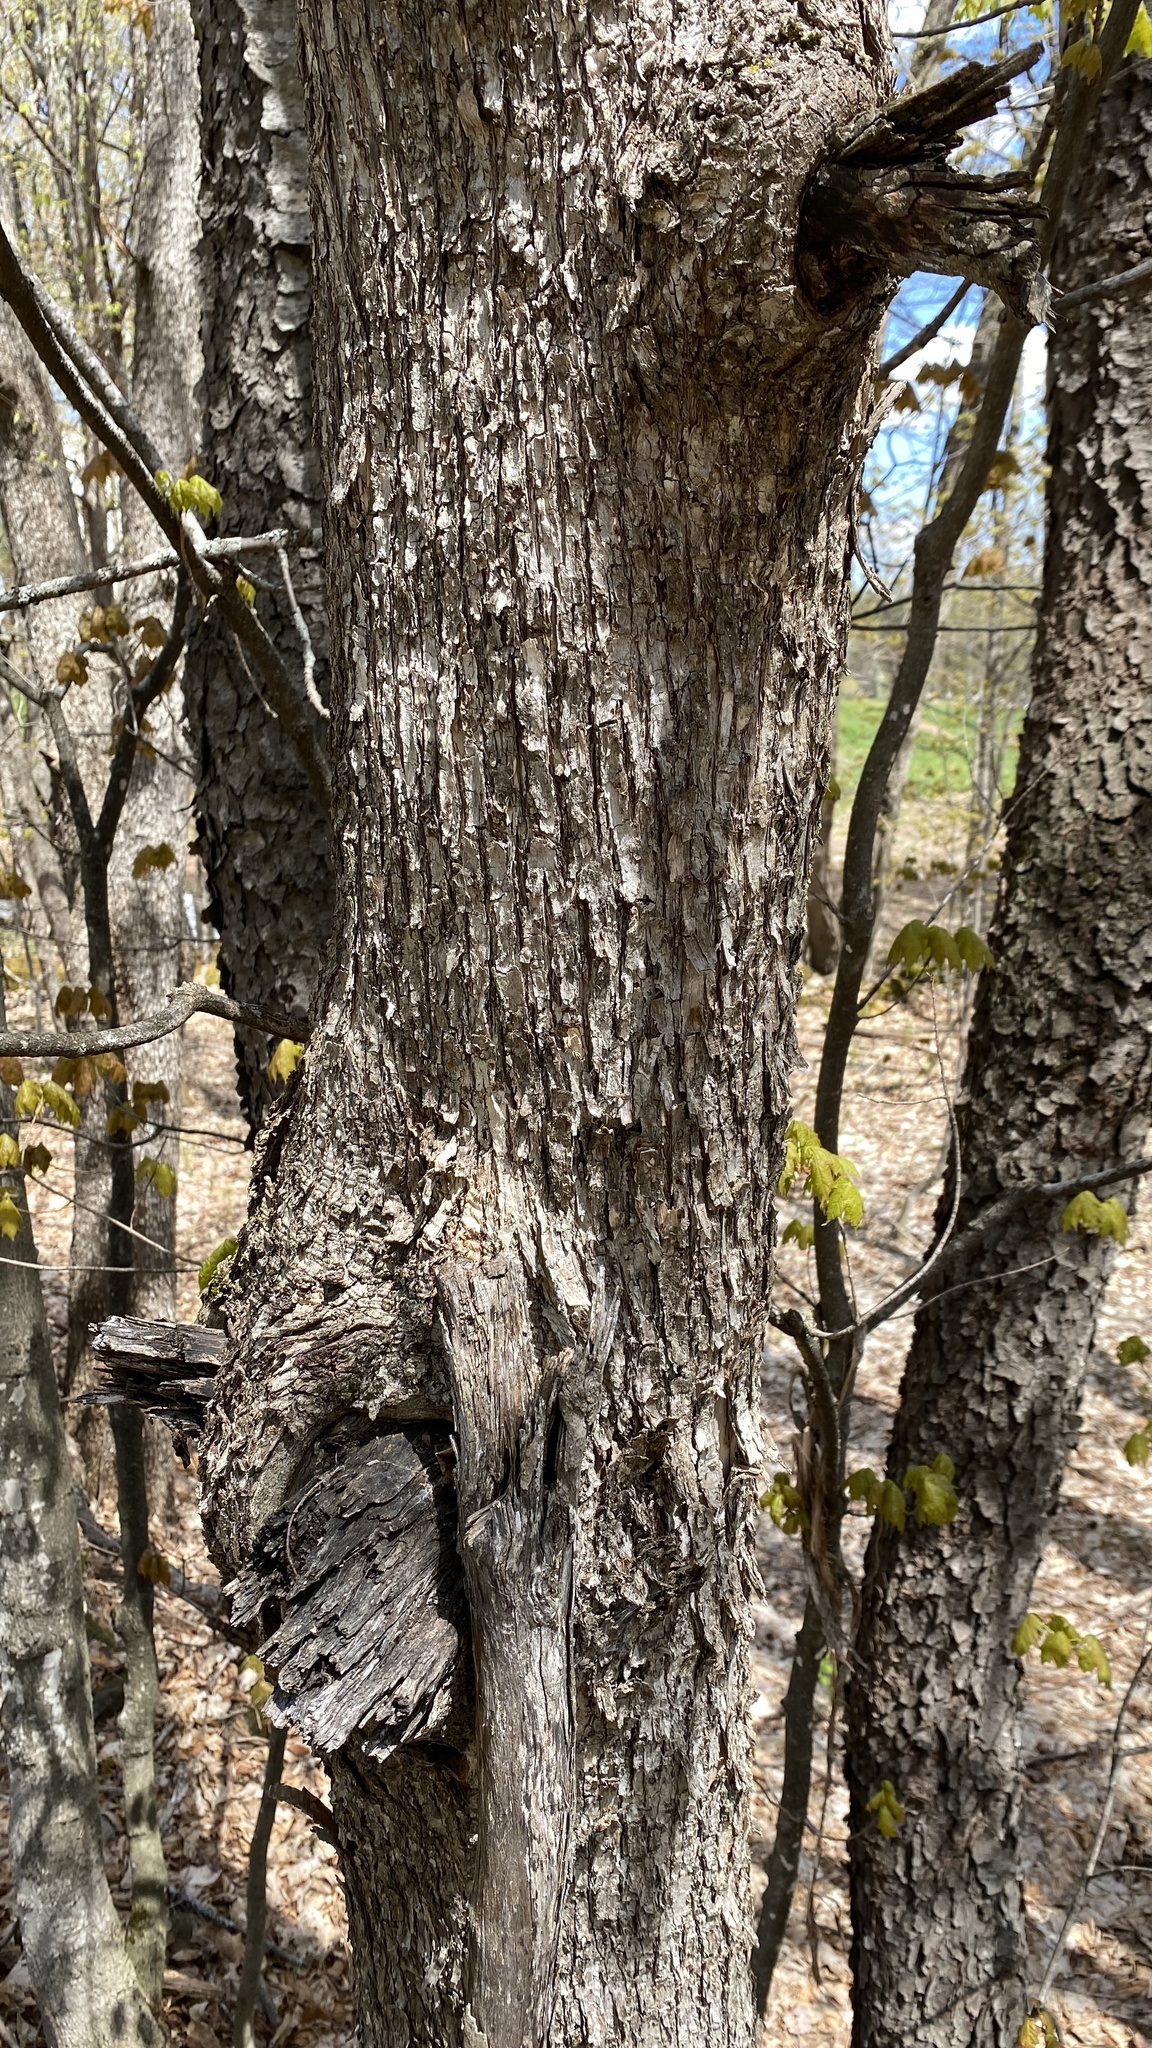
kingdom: Plantae
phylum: Tracheophyta
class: Magnoliopsida
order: Fagales
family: Betulaceae
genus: Ostrya
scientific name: Ostrya virginiana
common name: Ironwood
